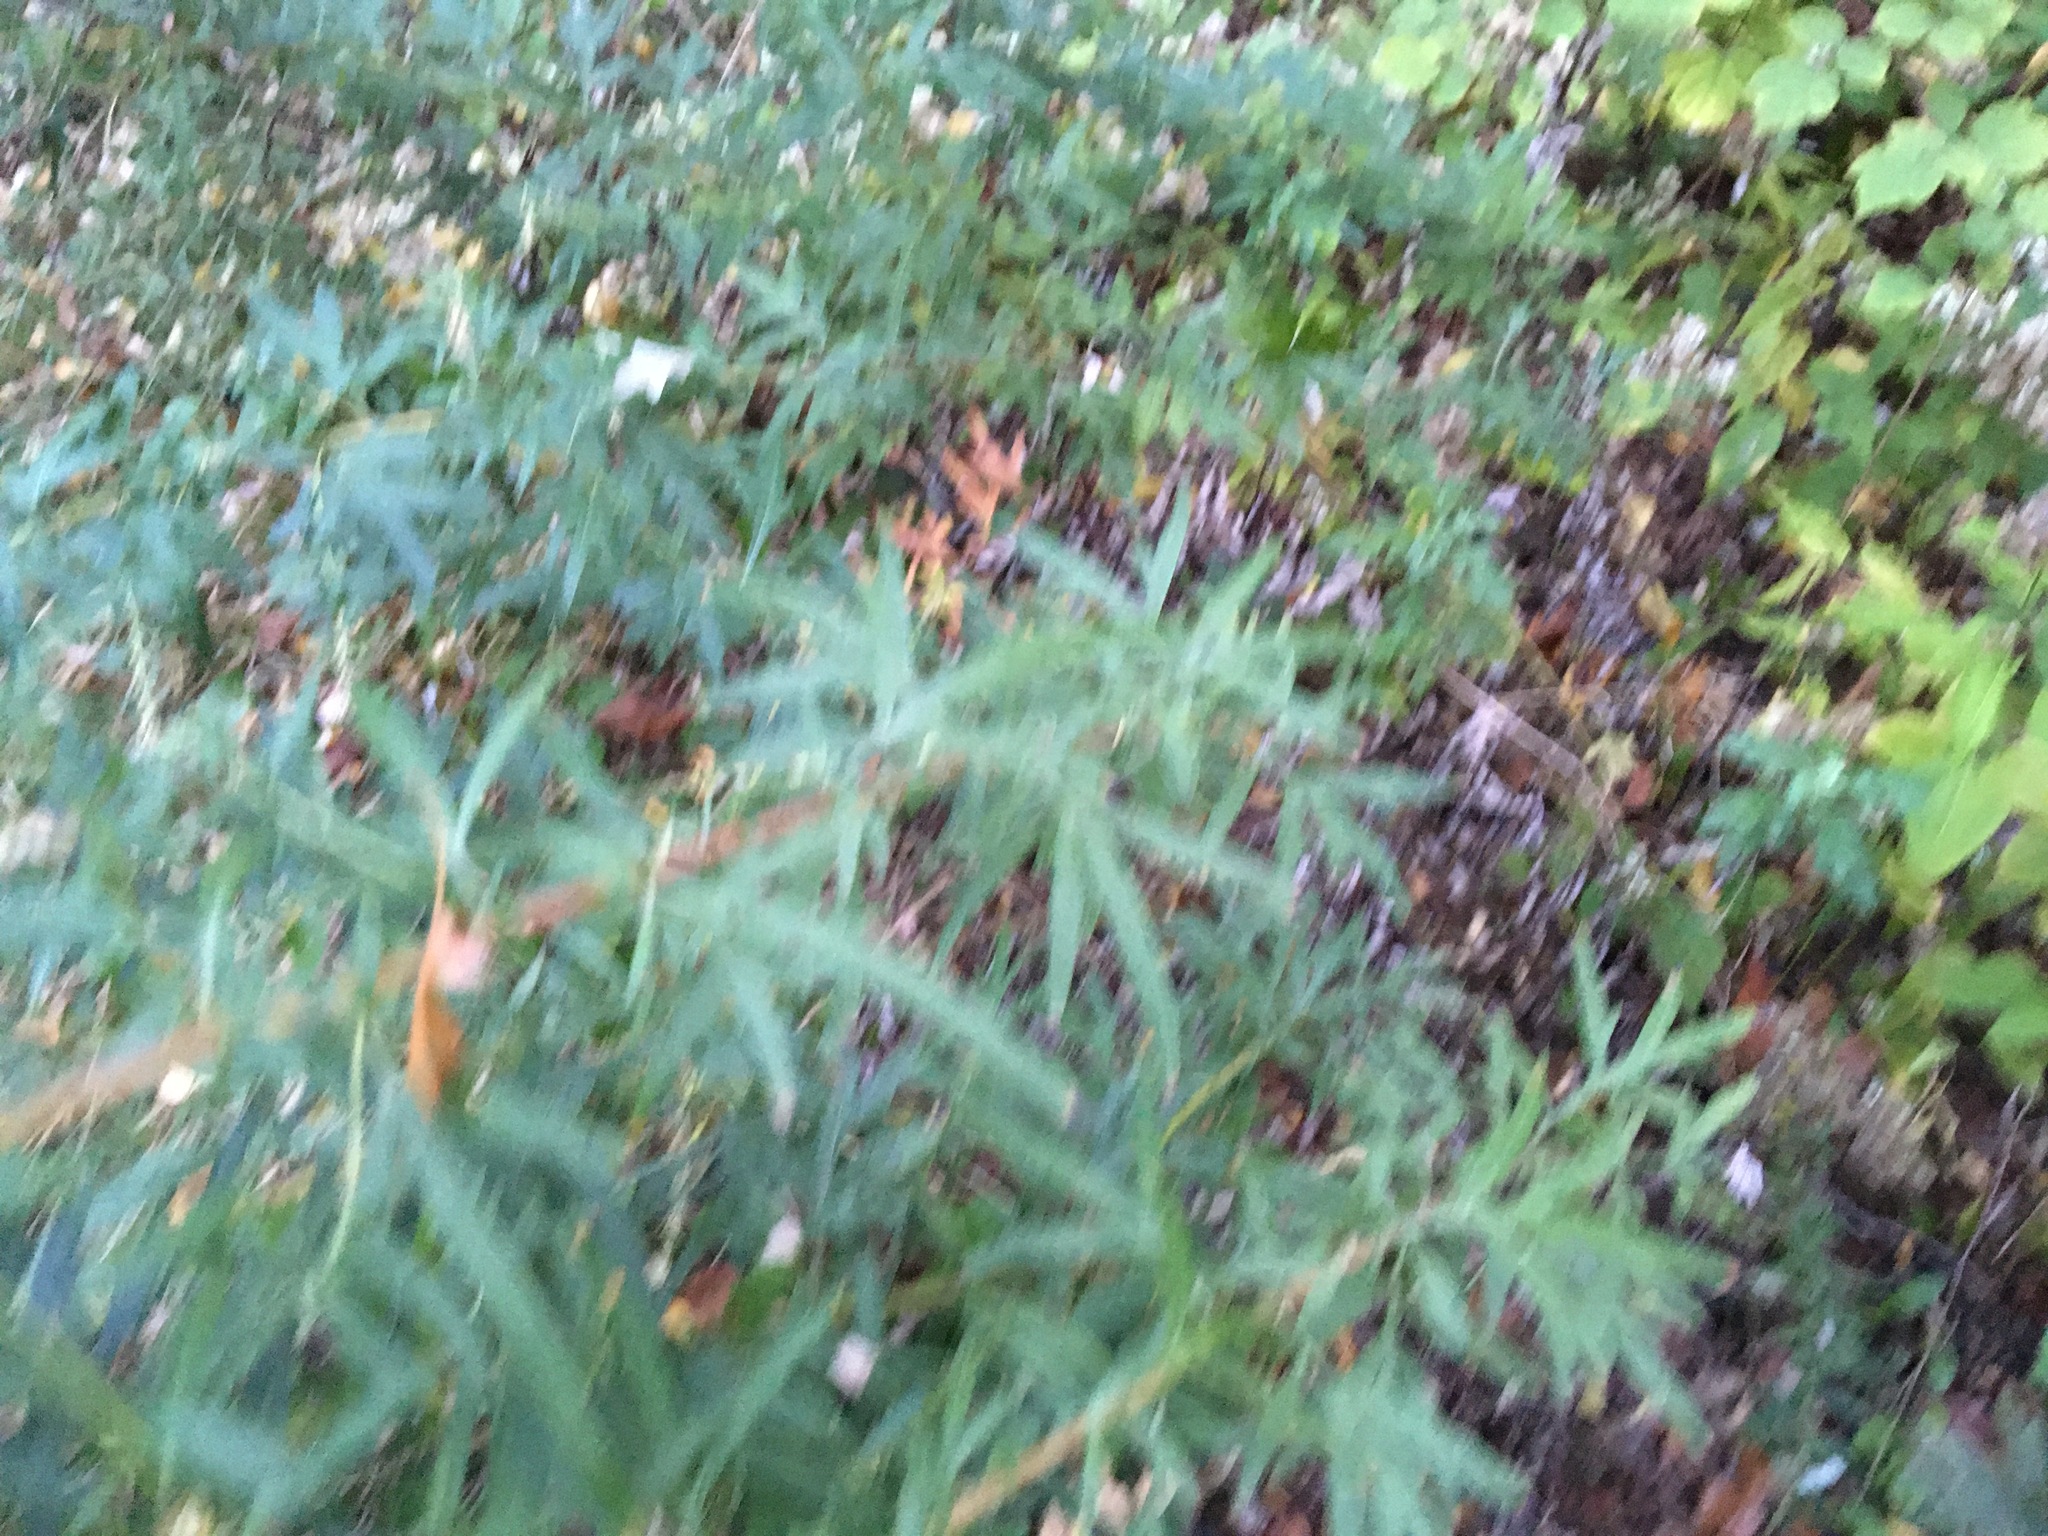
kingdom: Plantae
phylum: Tracheophyta
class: Magnoliopsida
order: Asterales
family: Asteraceae
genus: Artemisia
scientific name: Artemisia vulgaris
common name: Mugwort
